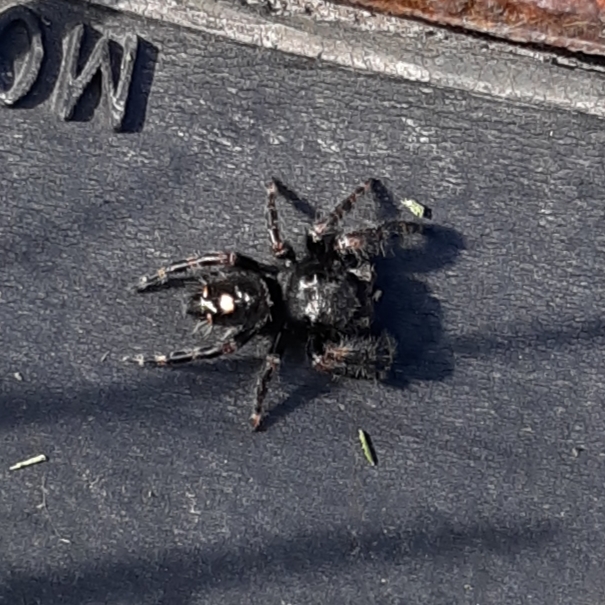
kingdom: Animalia
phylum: Arthropoda
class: Arachnida
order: Araneae
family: Salticidae
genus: Phidippus
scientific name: Phidippus audax
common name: Bold jumper
